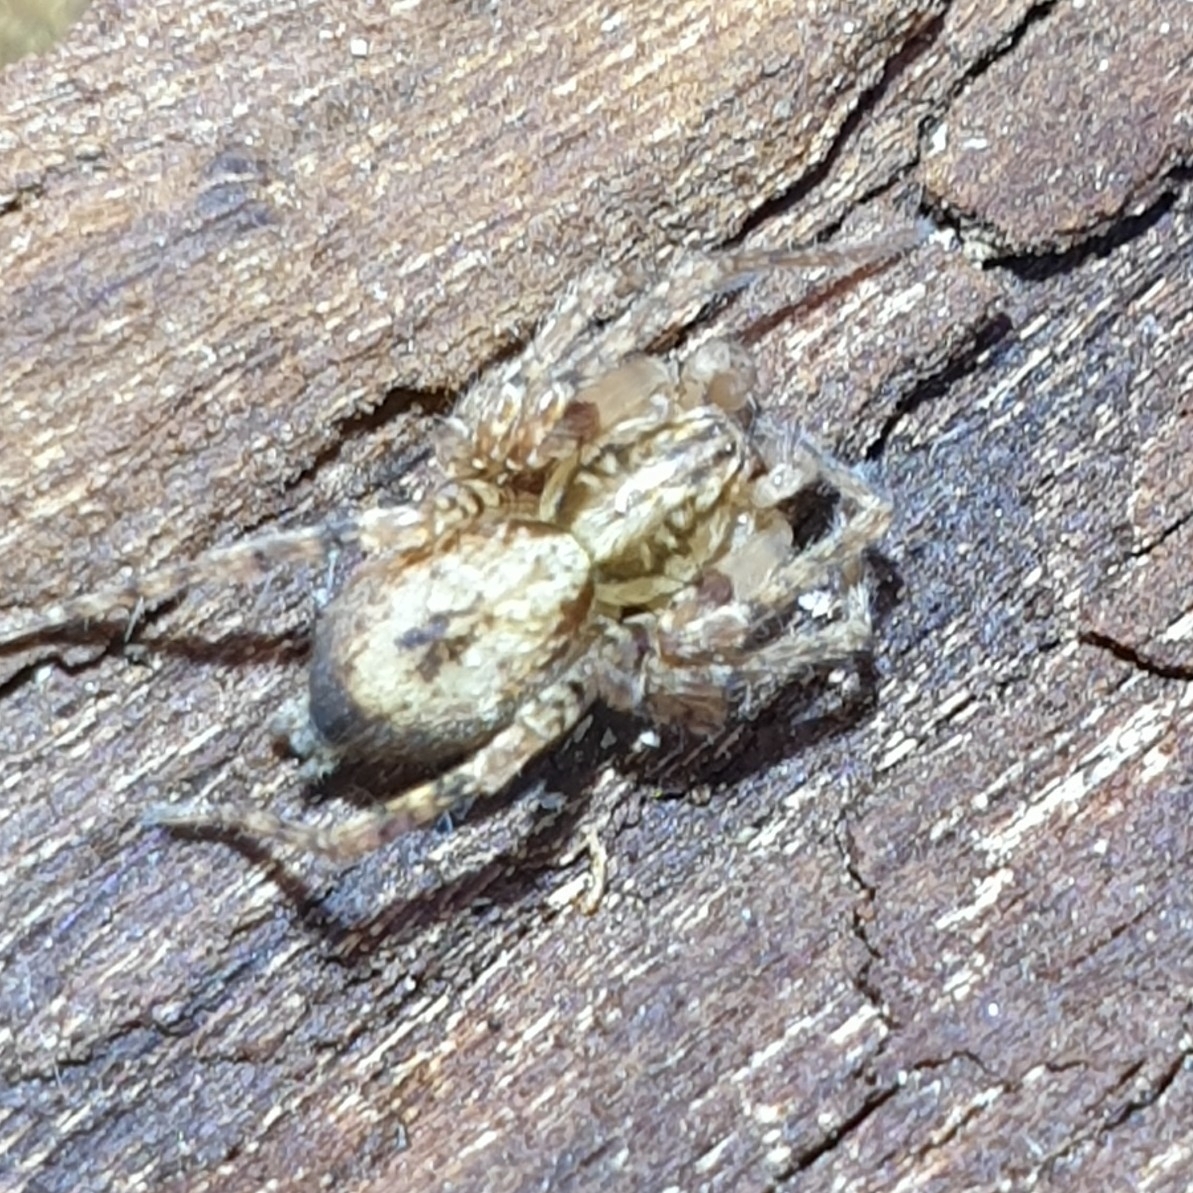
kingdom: Animalia
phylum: Arthropoda
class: Arachnida
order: Araneae
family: Anyphaenidae
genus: Anyphaena
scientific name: Anyphaena accentuata
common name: Buzzing spider
